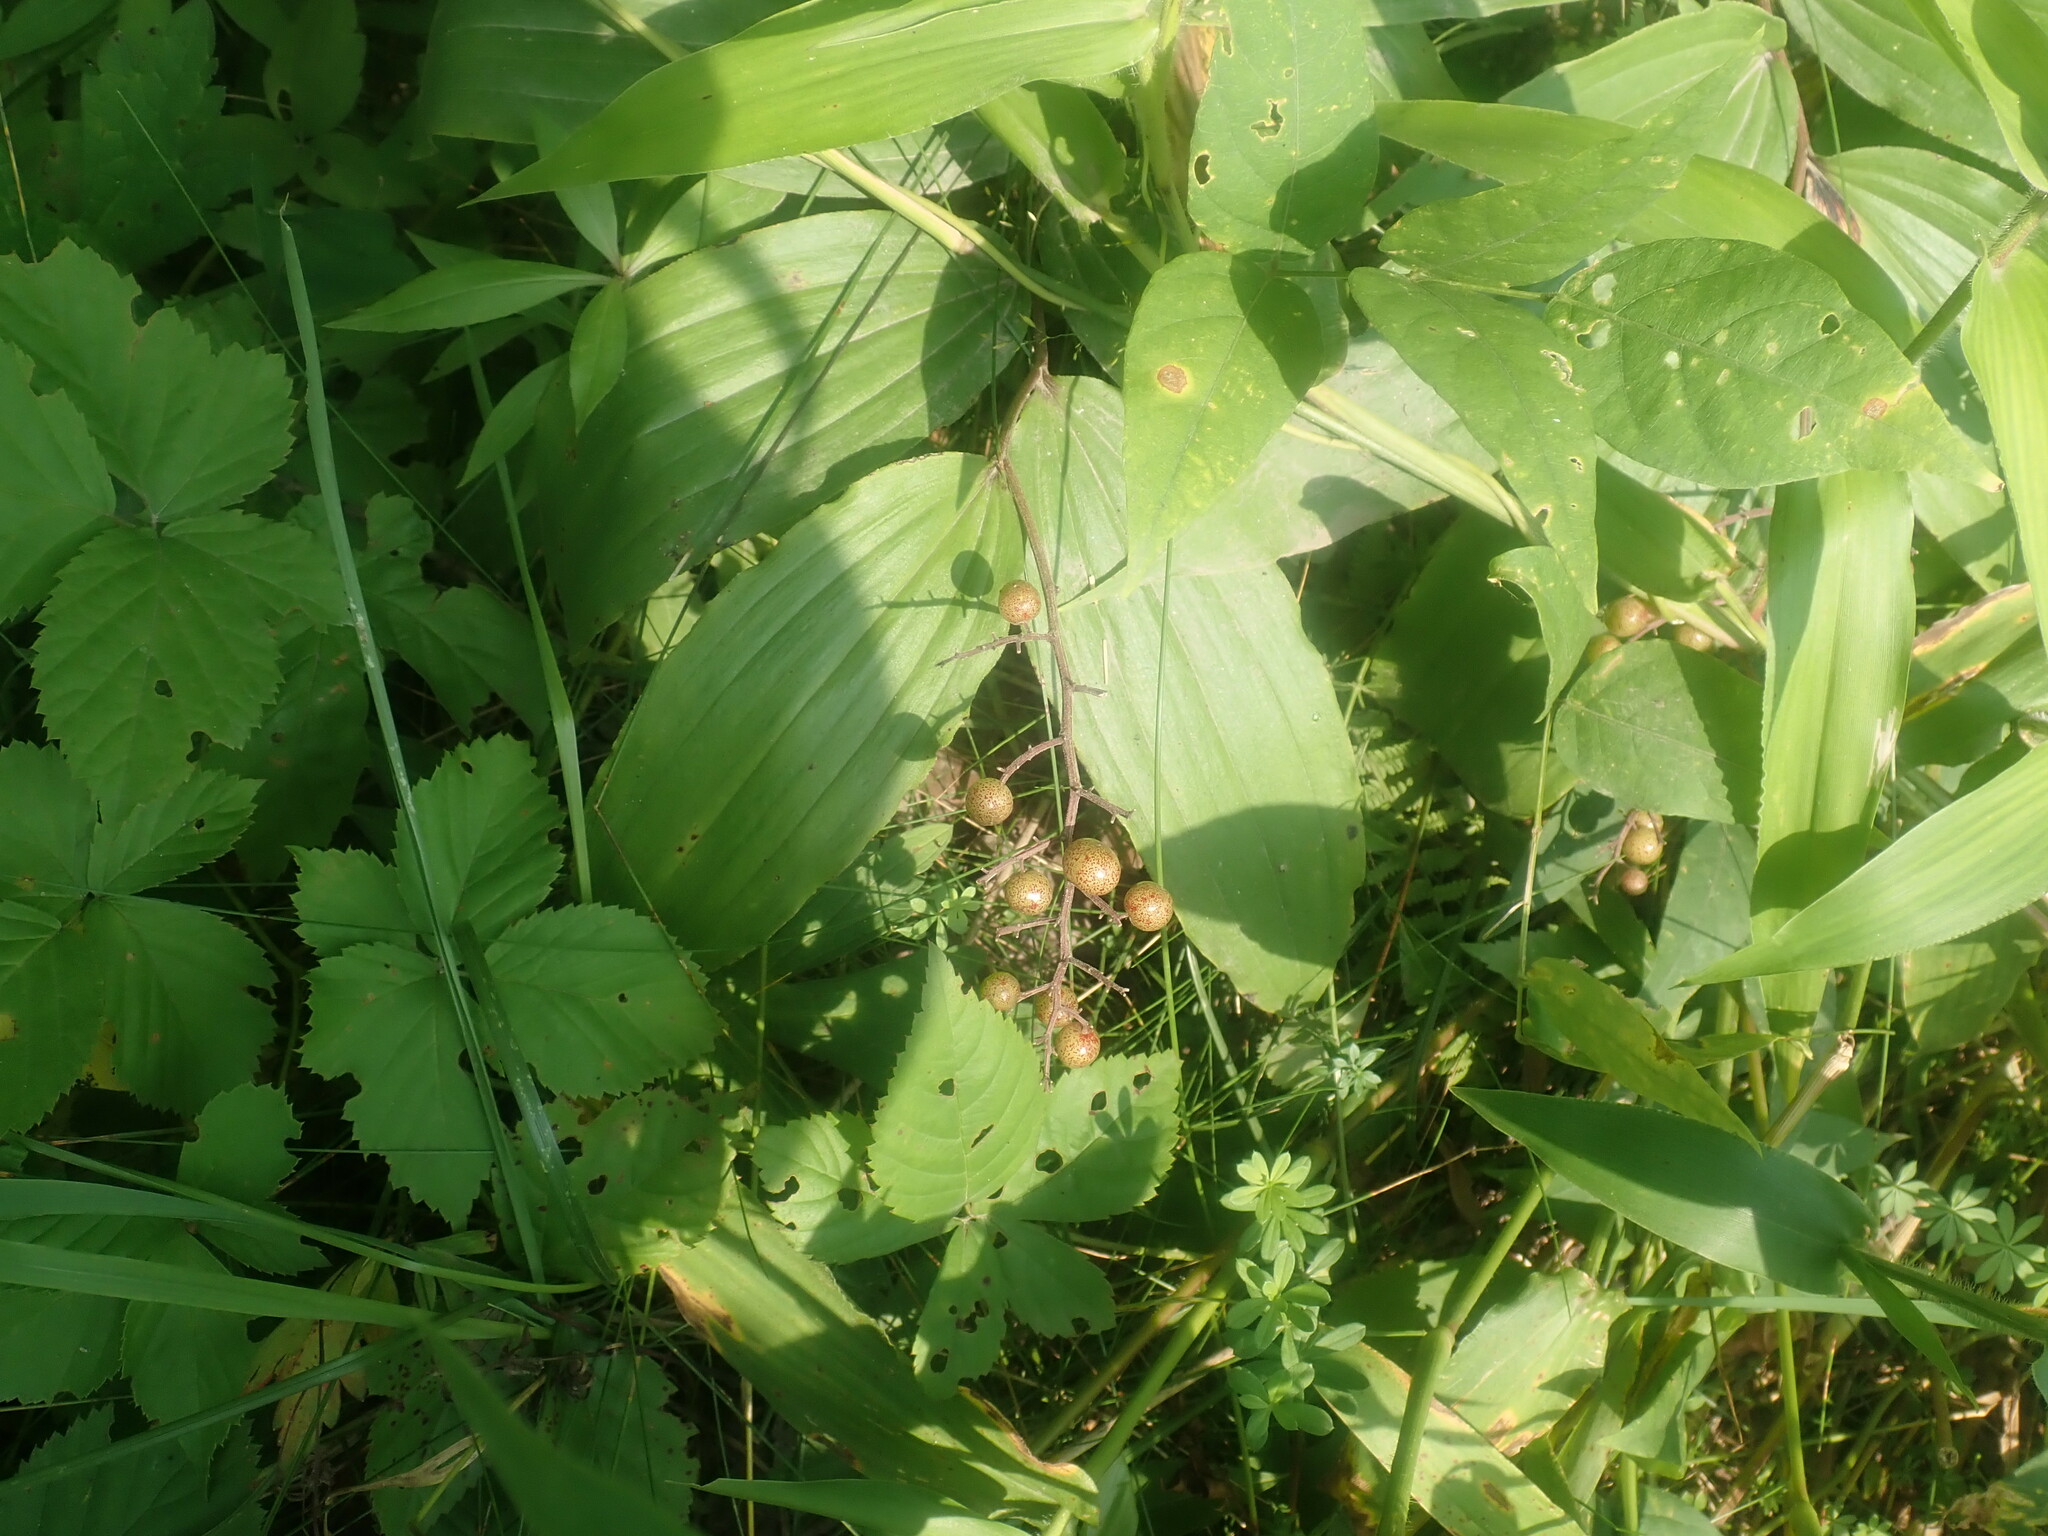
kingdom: Plantae
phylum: Tracheophyta
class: Liliopsida
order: Asparagales
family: Asparagaceae
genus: Maianthemum
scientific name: Maianthemum racemosum
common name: False spikenard
